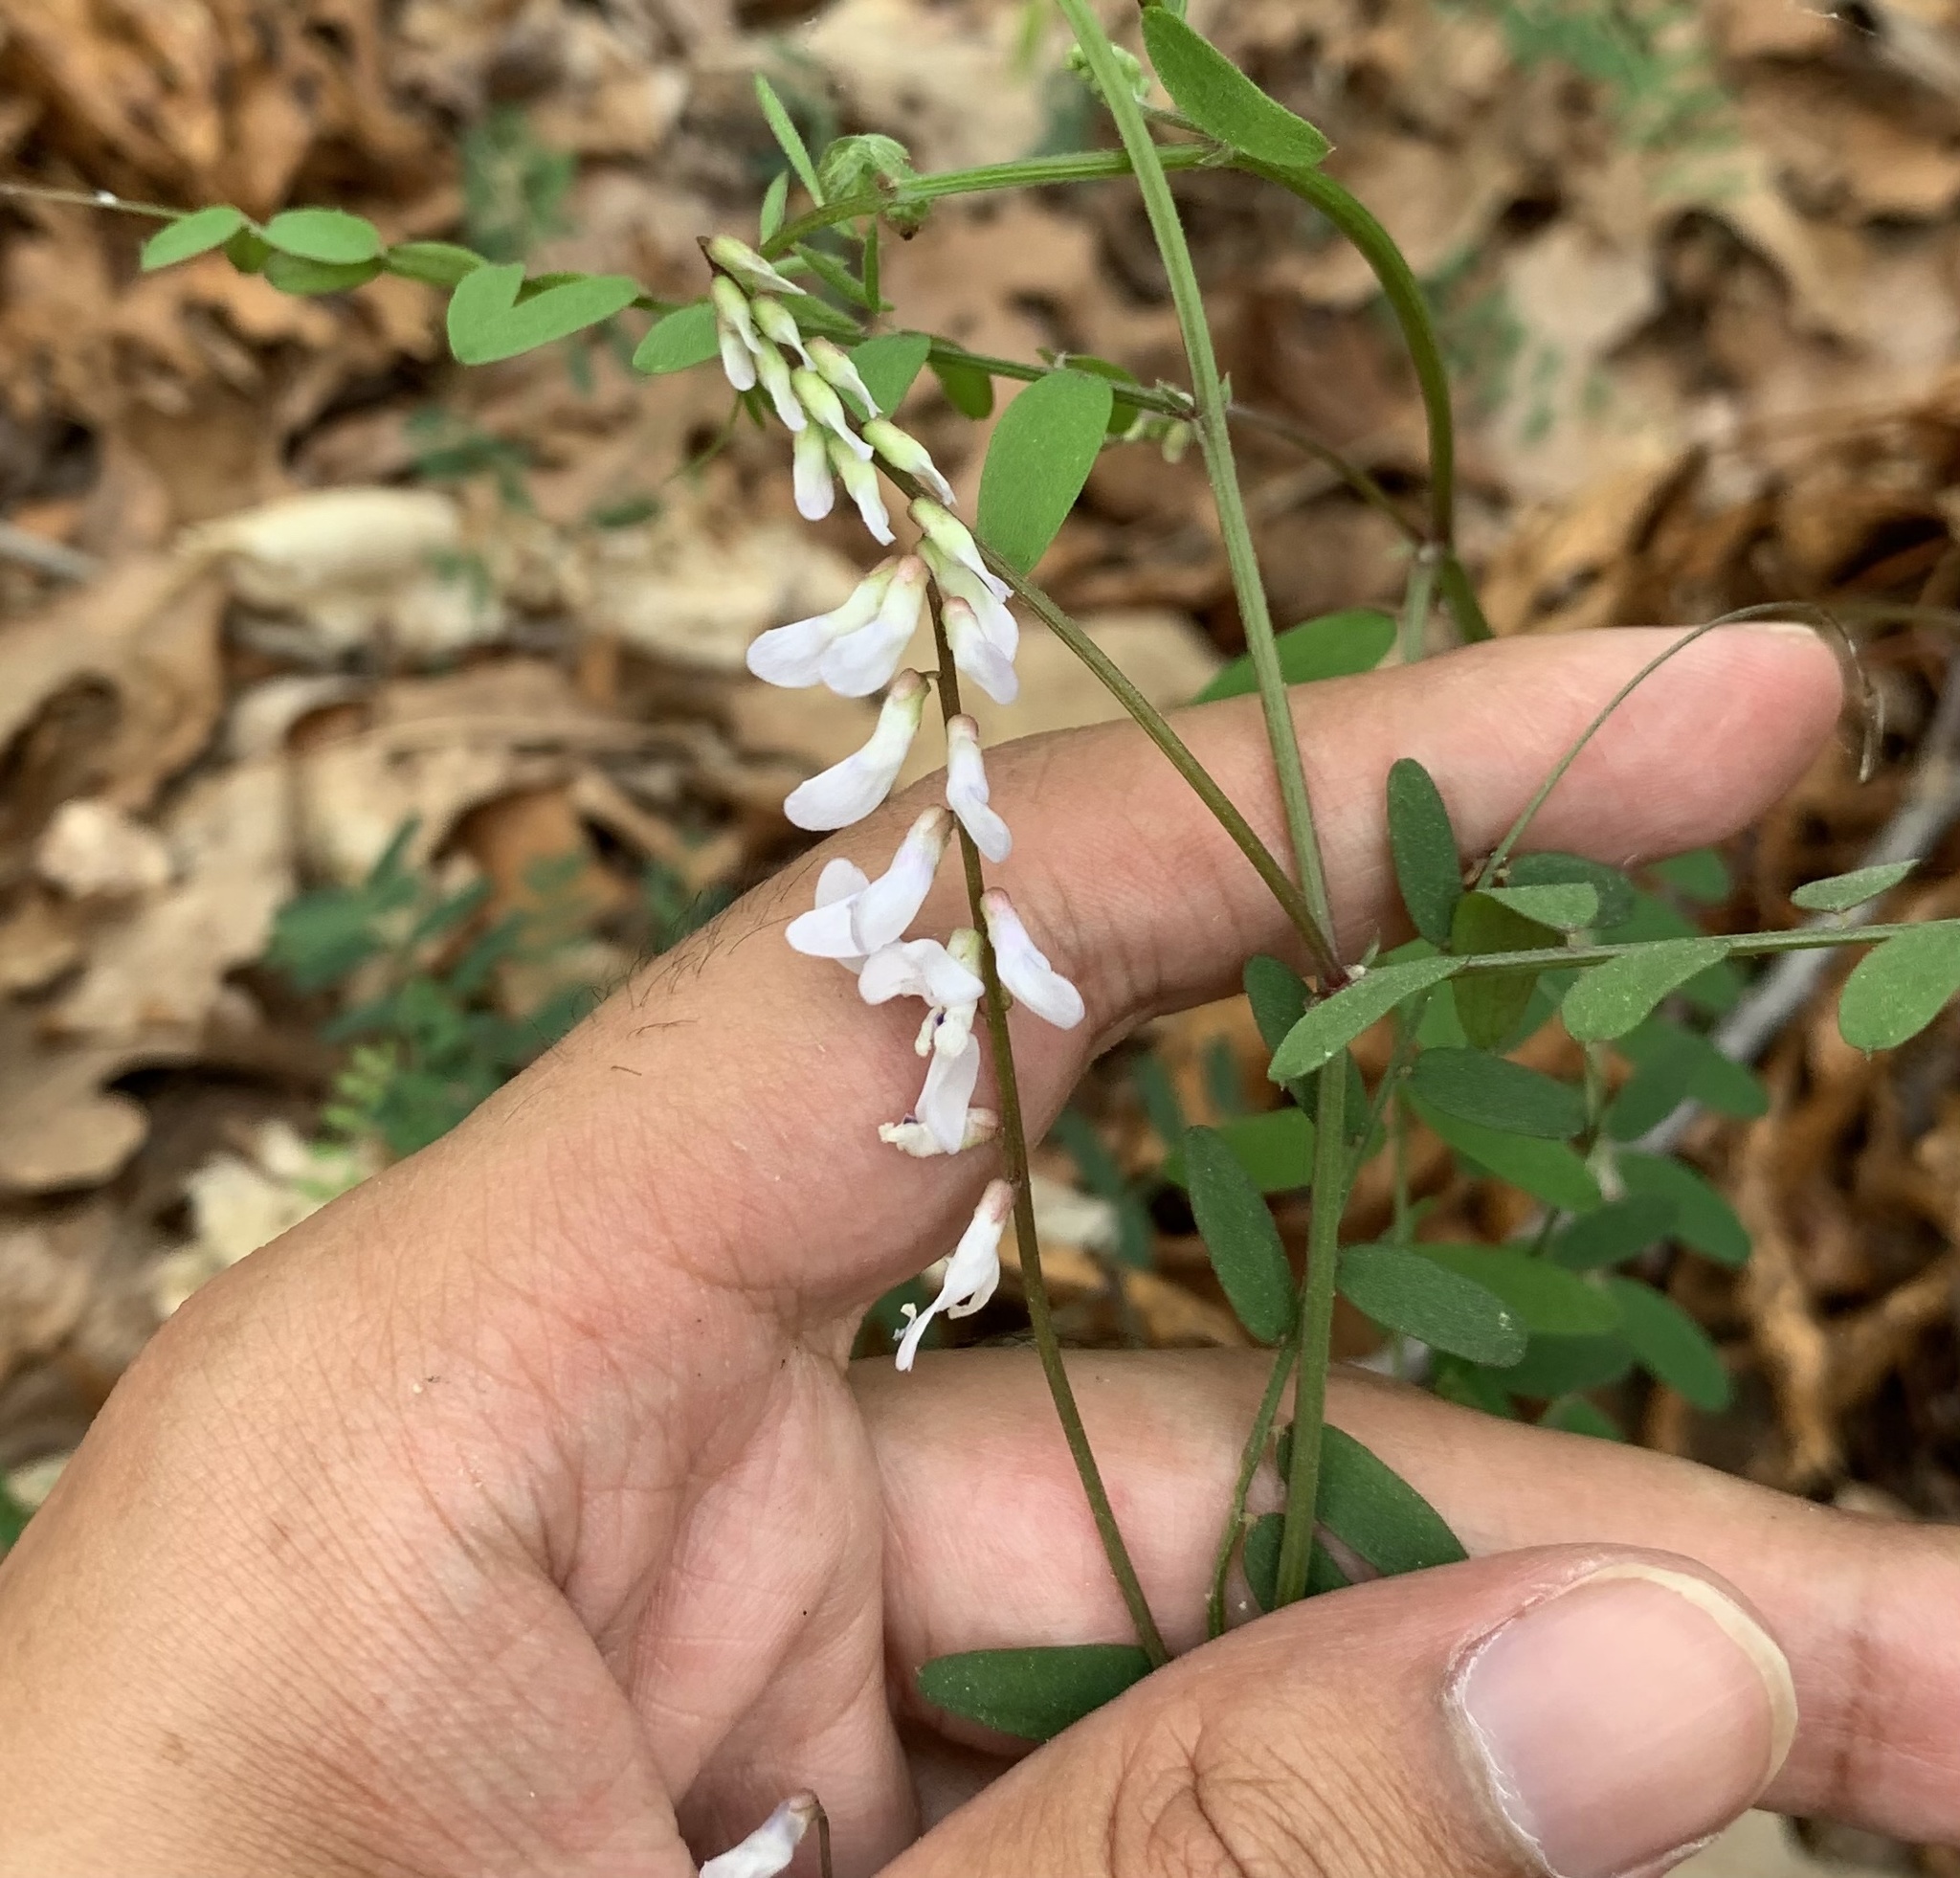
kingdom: Plantae
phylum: Tracheophyta
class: Magnoliopsida
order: Fabales
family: Fabaceae
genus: Vicia
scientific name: Vicia caroliniana
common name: Carolina vetch
